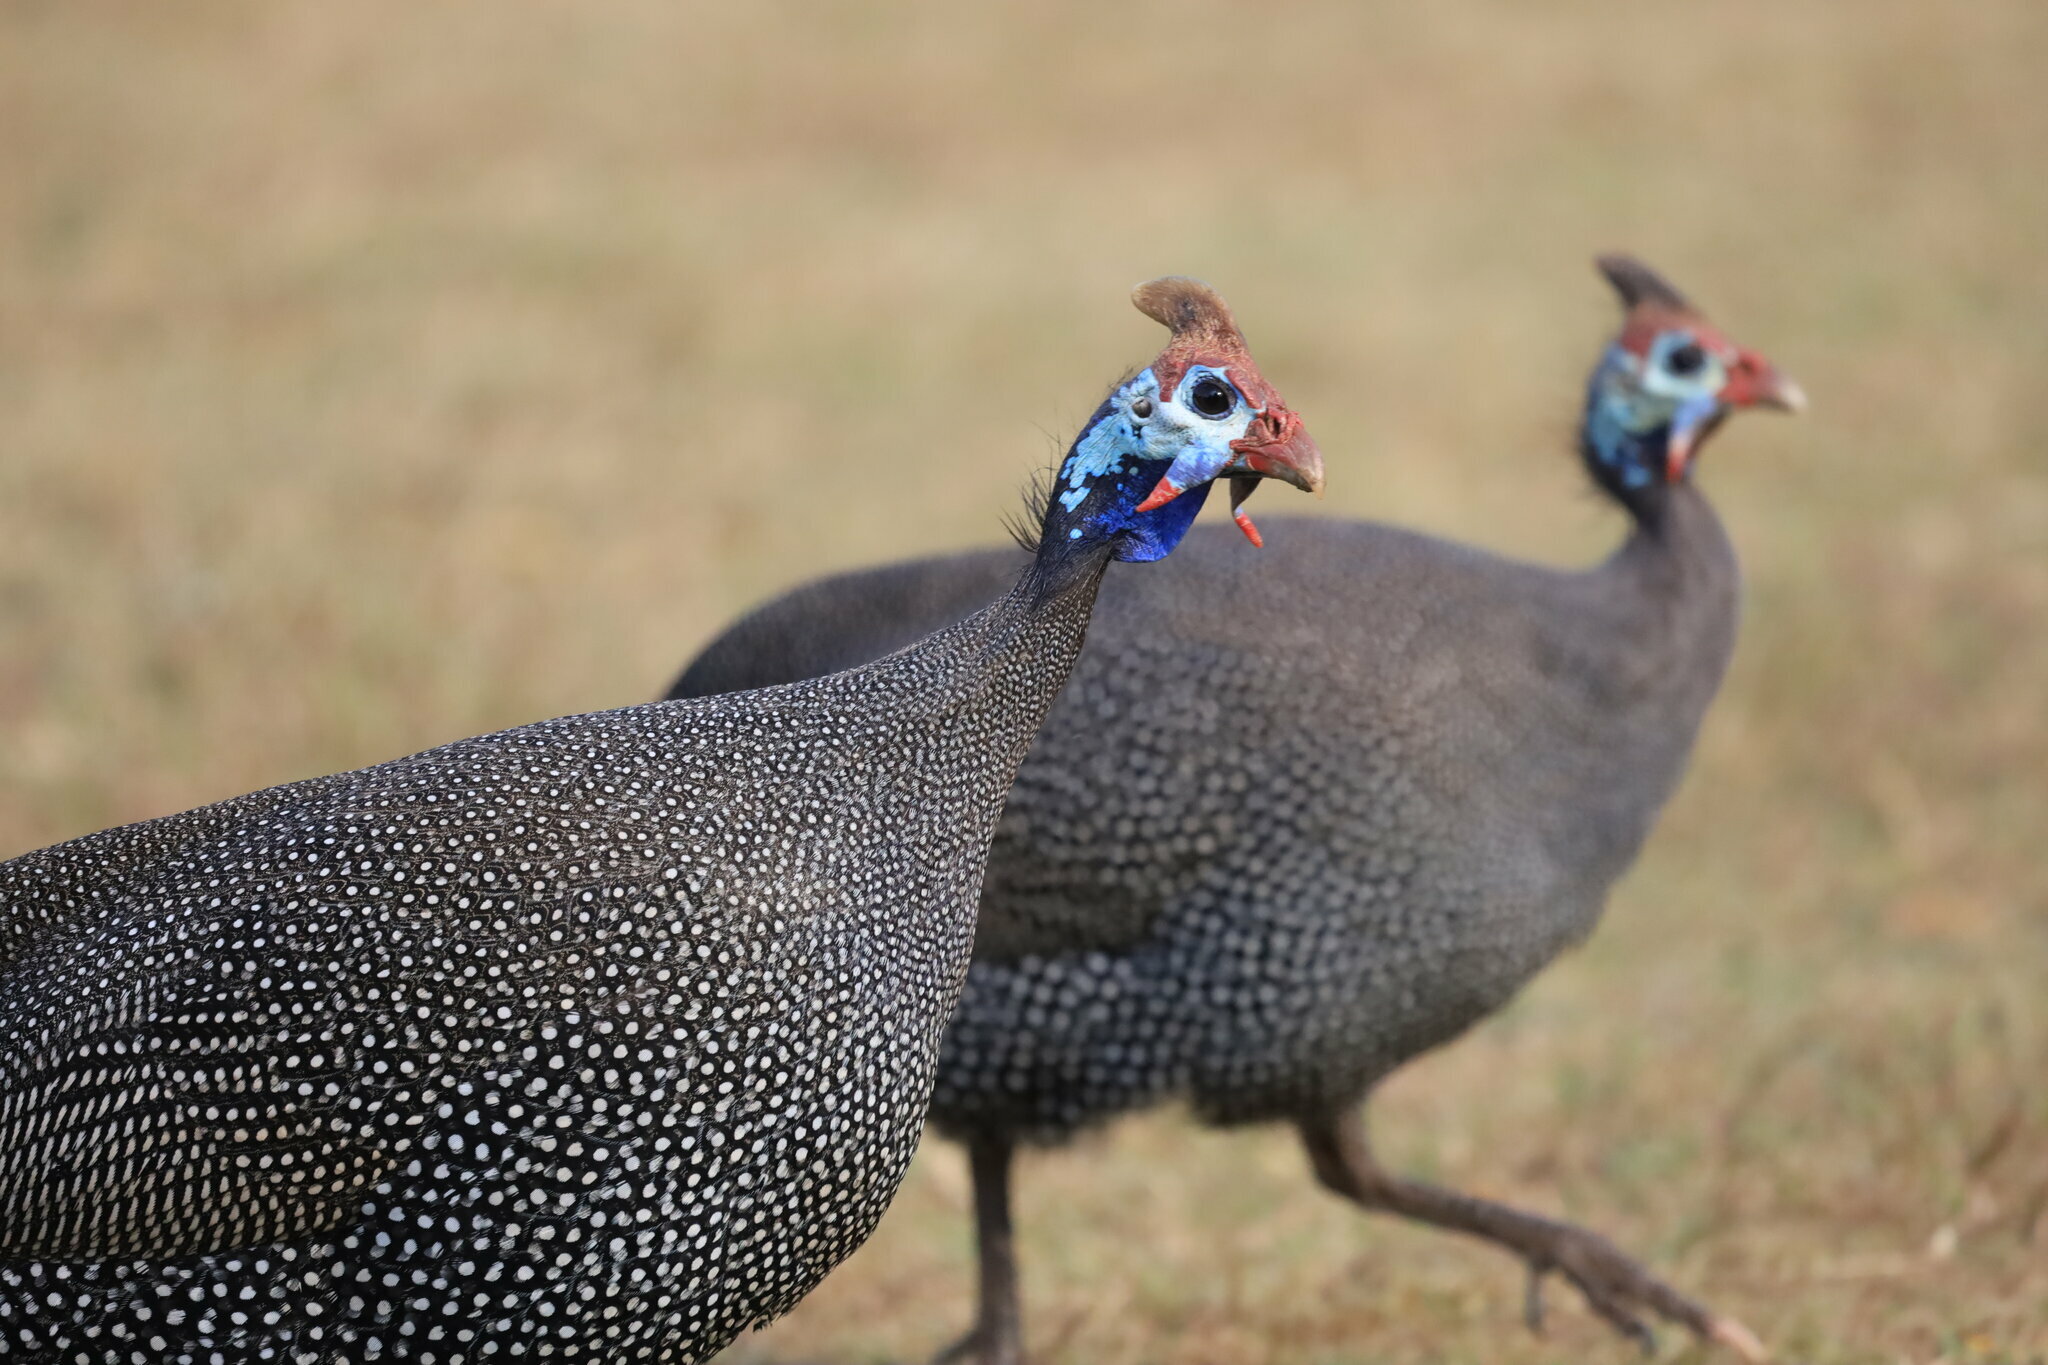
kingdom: Animalia
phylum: Chordata
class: Aves
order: Galliformes
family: Numididae
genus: Numida
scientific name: Numida meleagris
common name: Helmeted guineafowl
